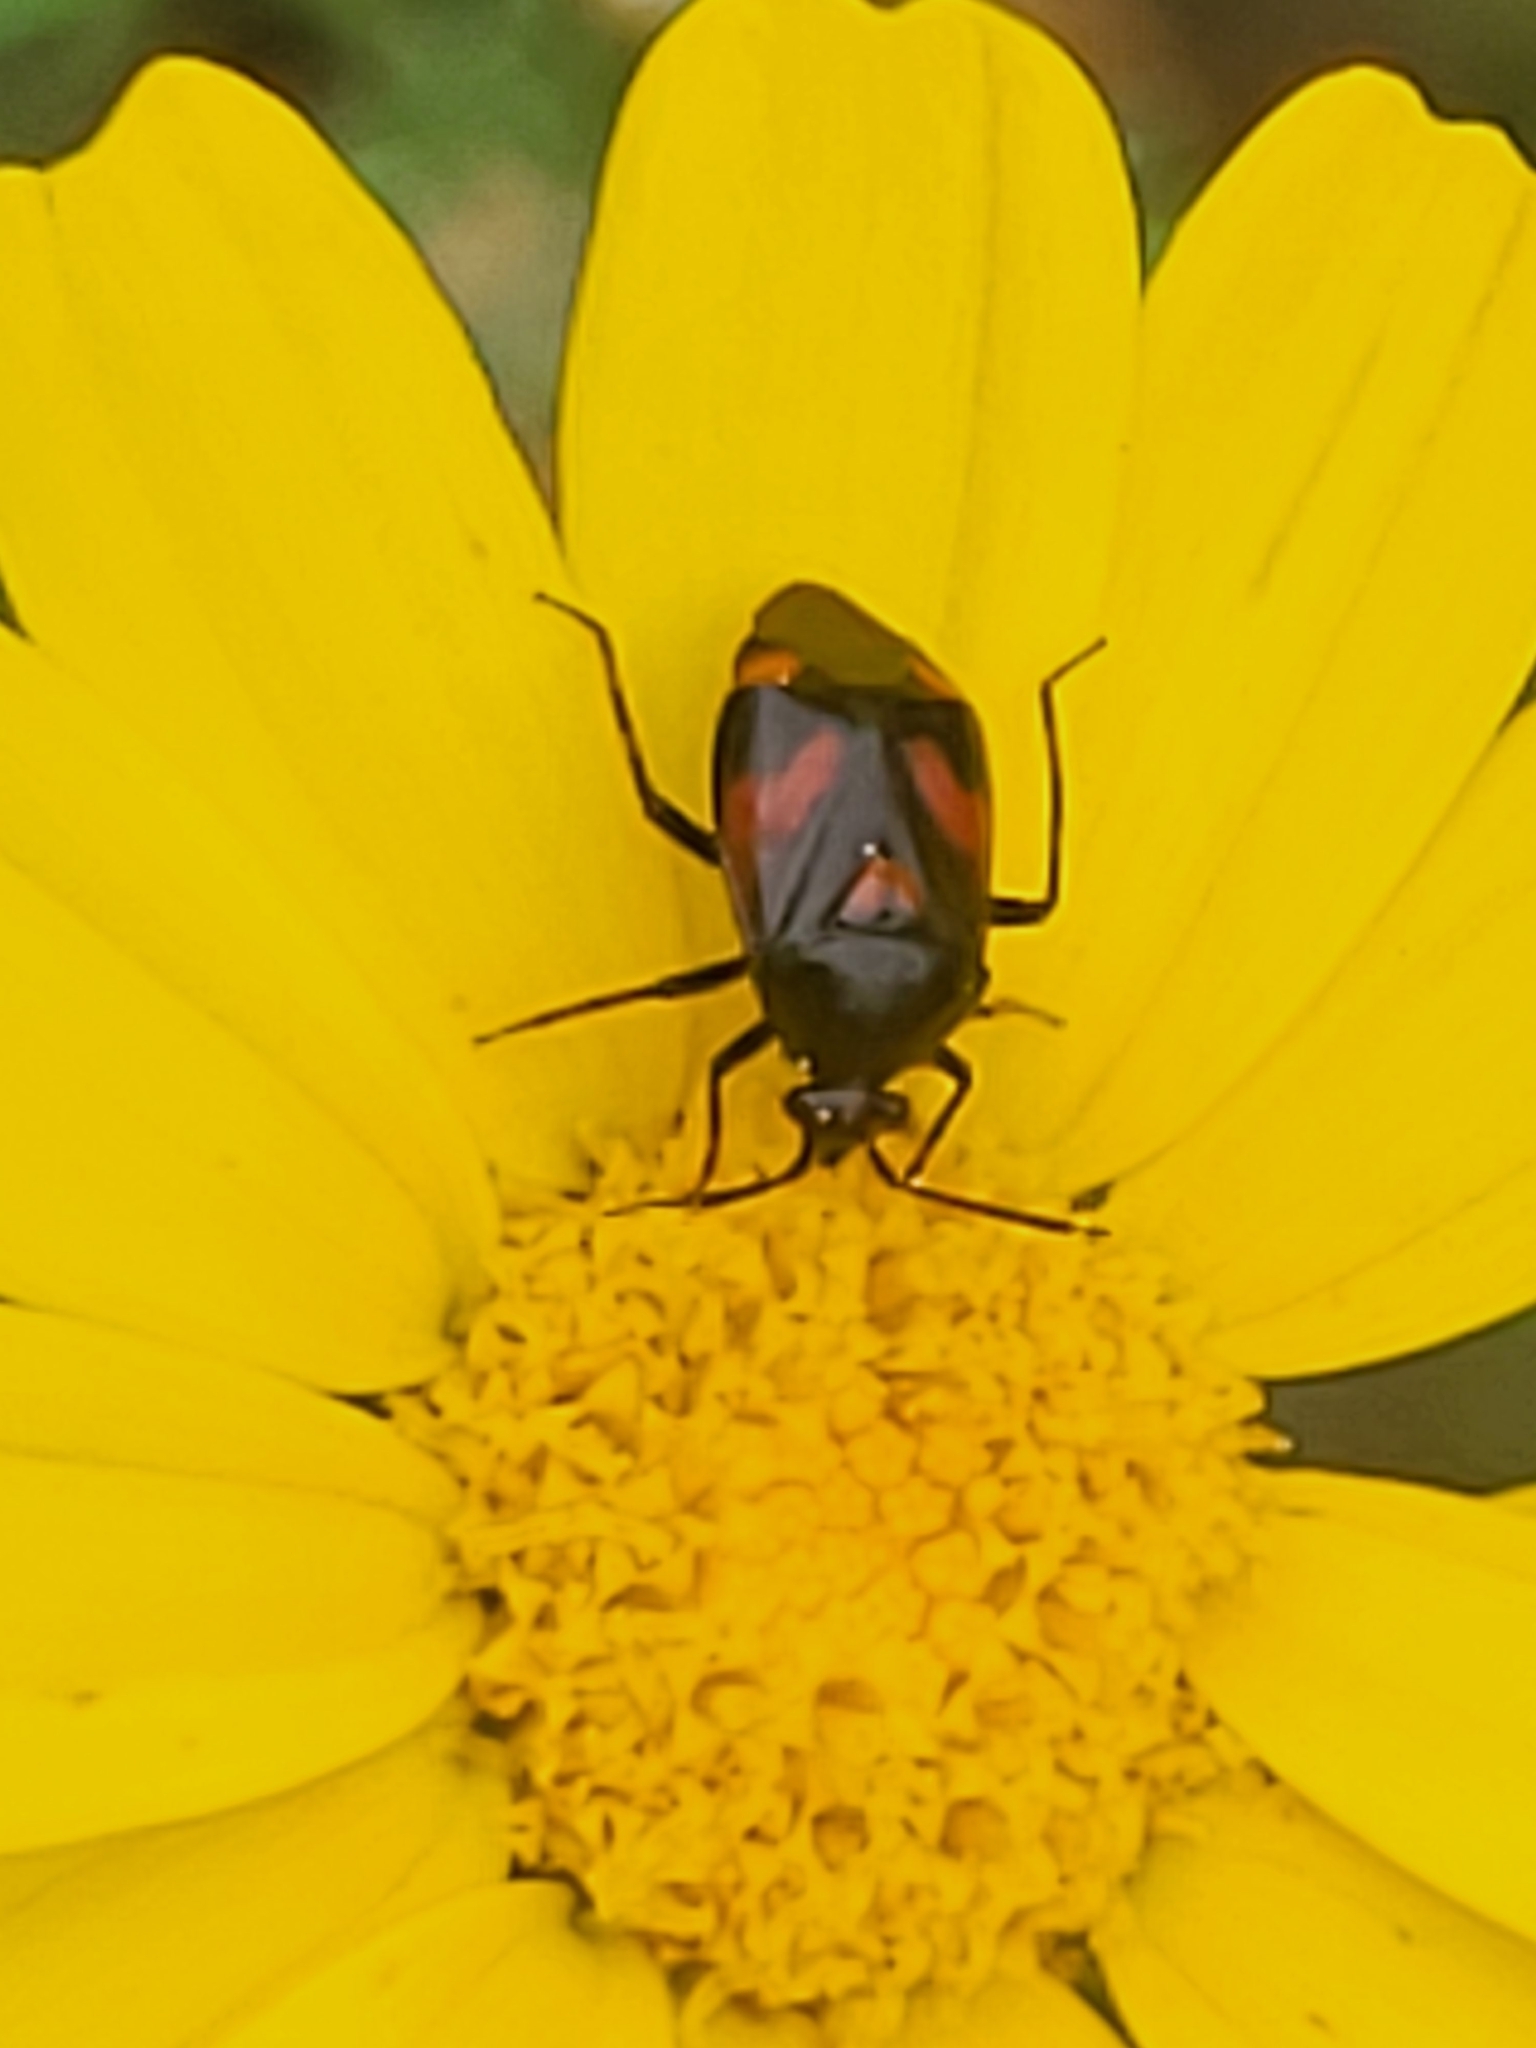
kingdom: Animalia
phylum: Arthropoda
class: Insecta
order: Hemiptera
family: Miridae
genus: Deraeocoris
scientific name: Deraeocoris schach
